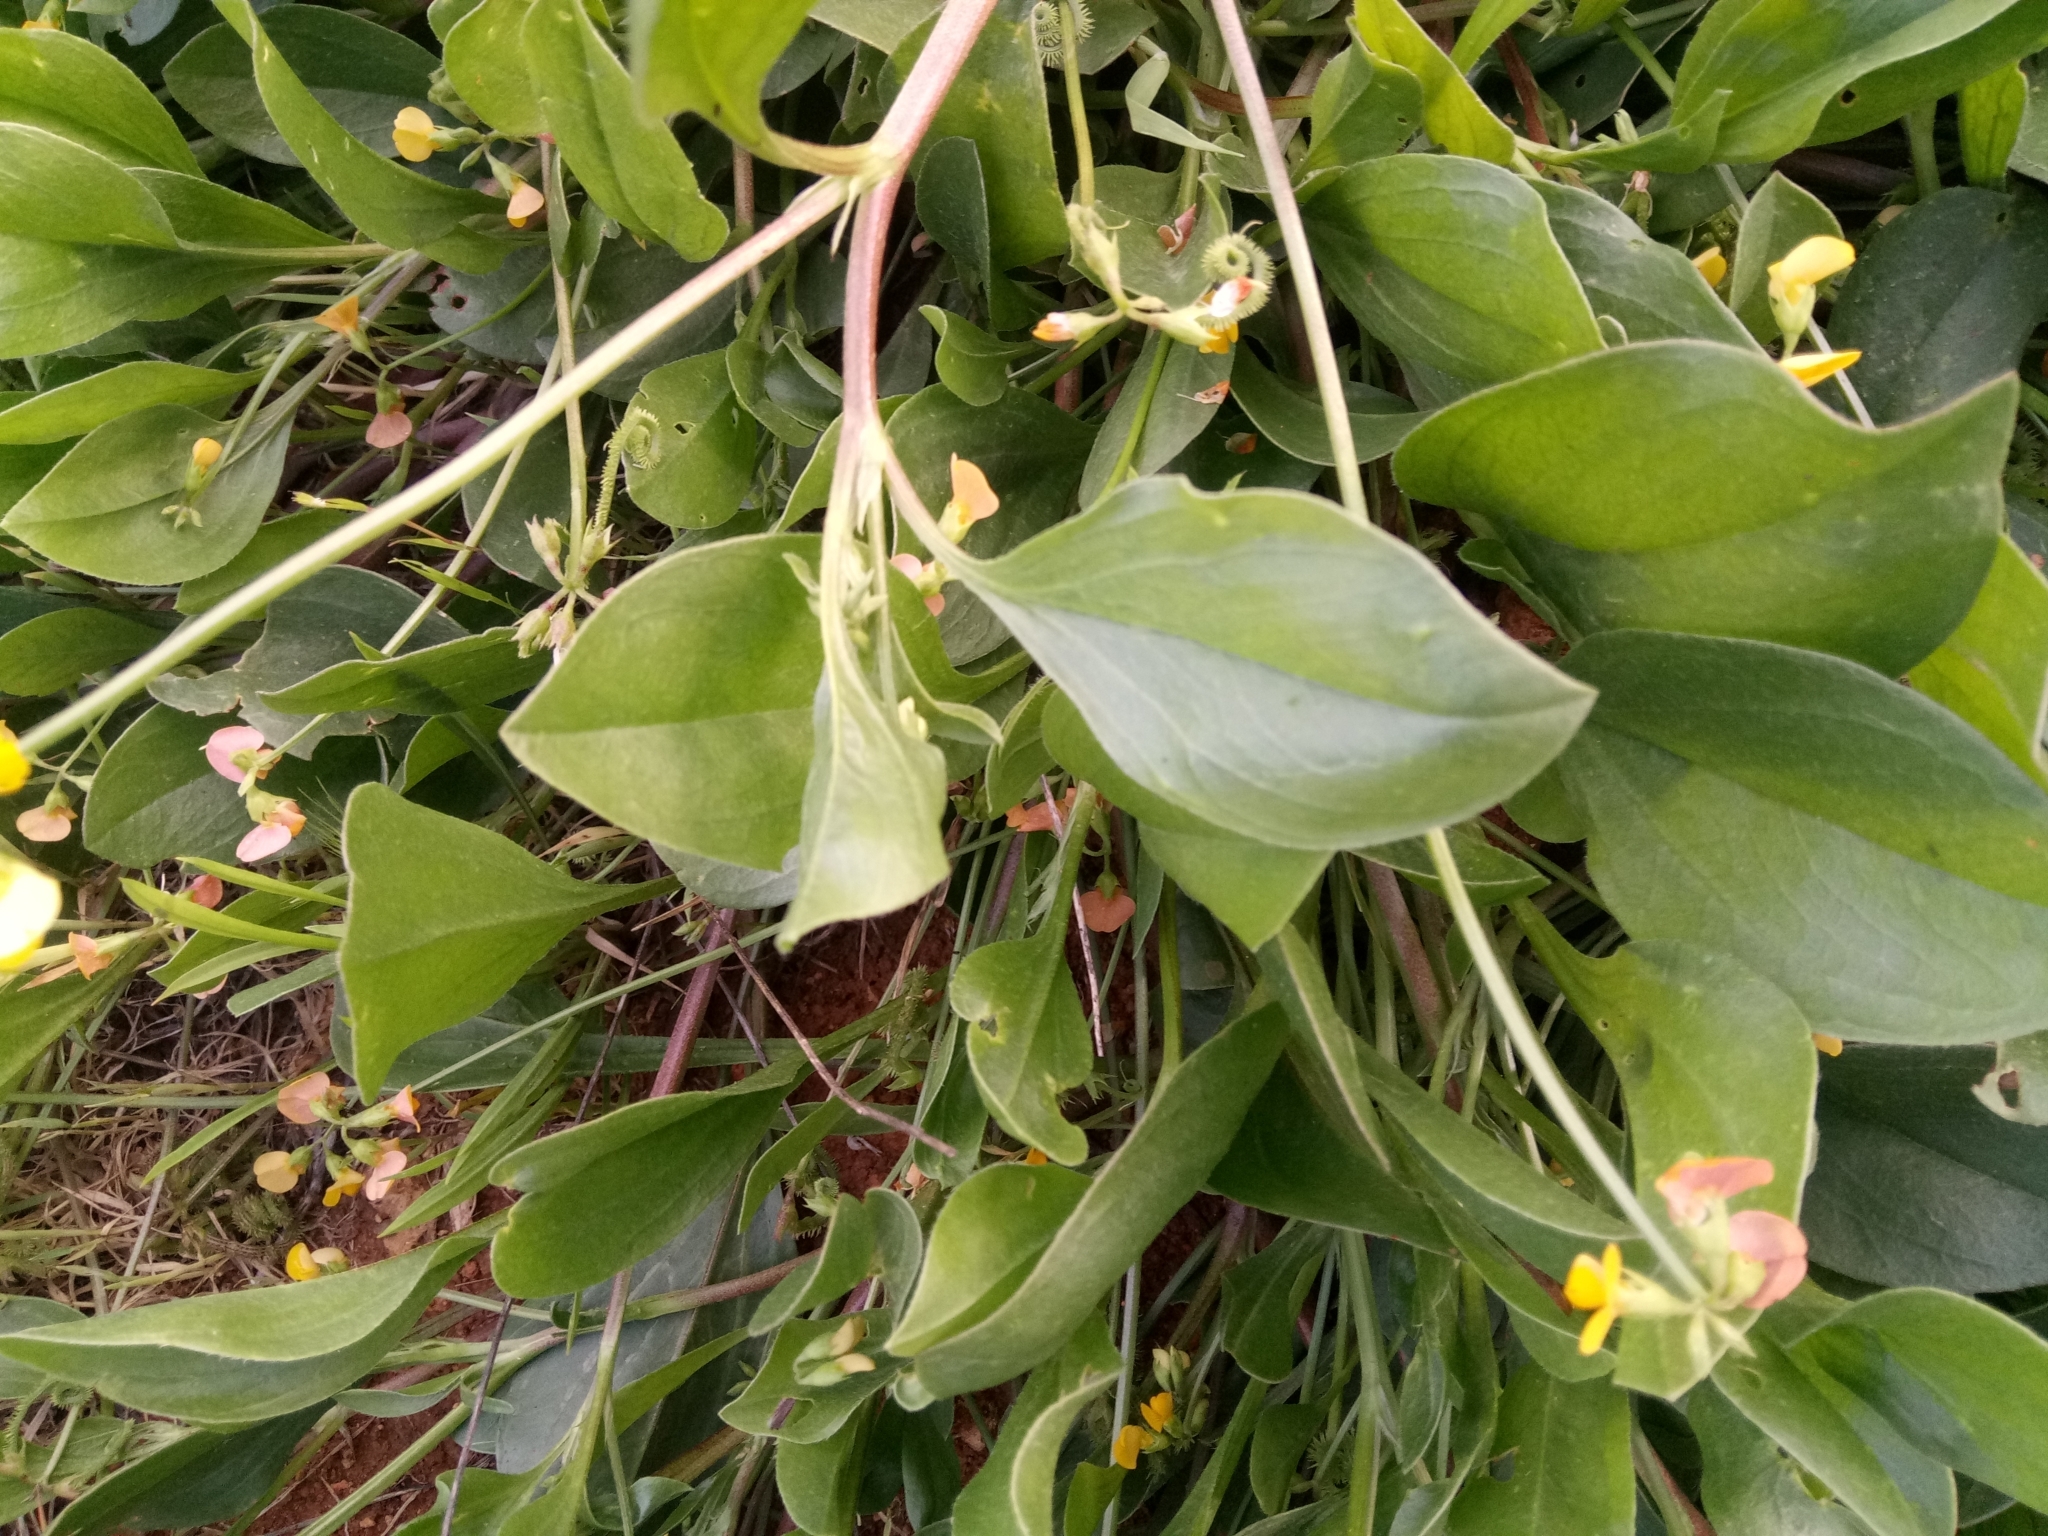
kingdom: Plantae
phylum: Tracheophyta
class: Magnoliopsida
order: Fabales
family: Fabaceae
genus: Scorpiurus
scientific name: Scorpiurus muricatus
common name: Caterpillar-plant
